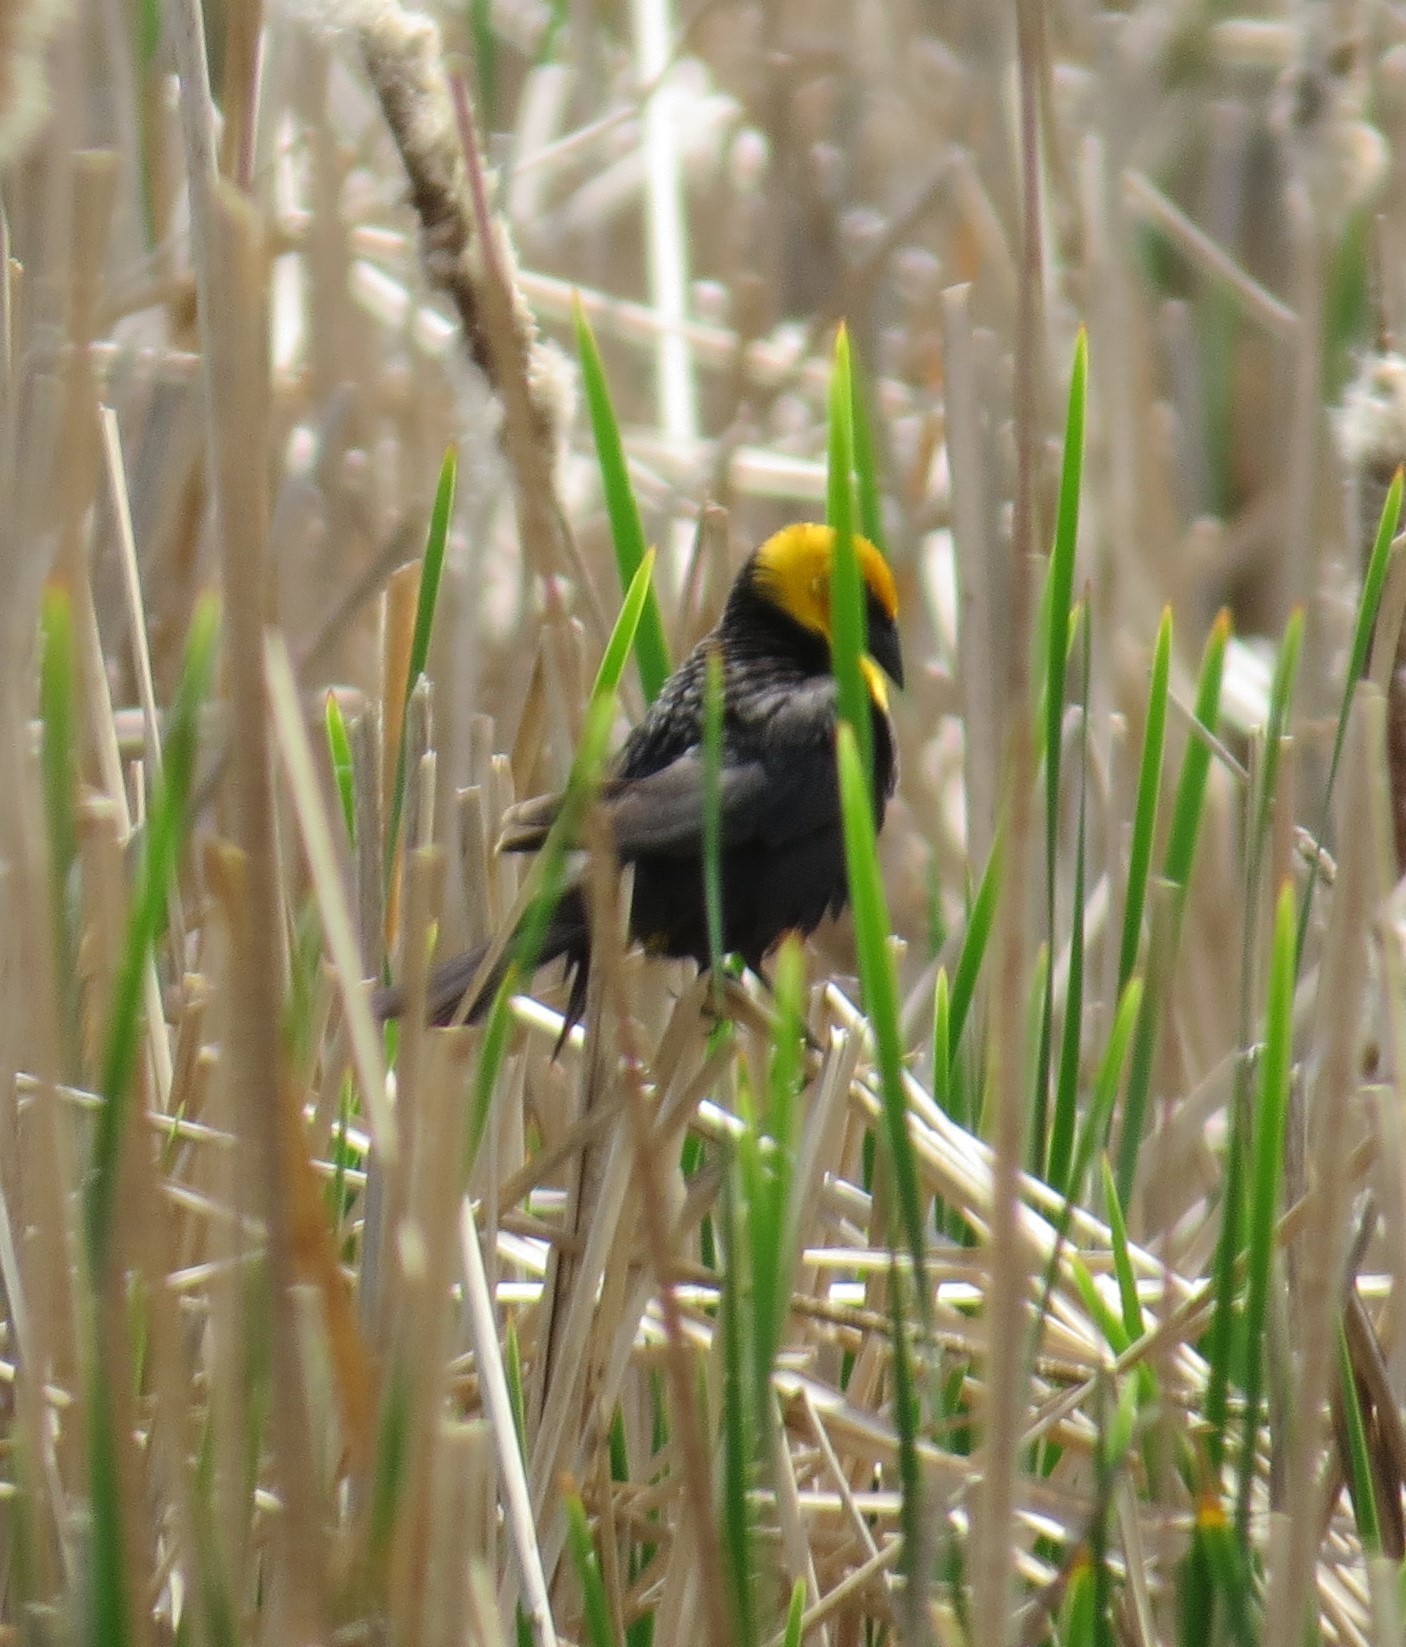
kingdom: Animalia
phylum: Chordata
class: Aves
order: Passeriformes
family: Icteridae
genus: Xanthocephalus
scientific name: Xanthocephalus xanthocephalus
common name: Yellow-headed blackbird
